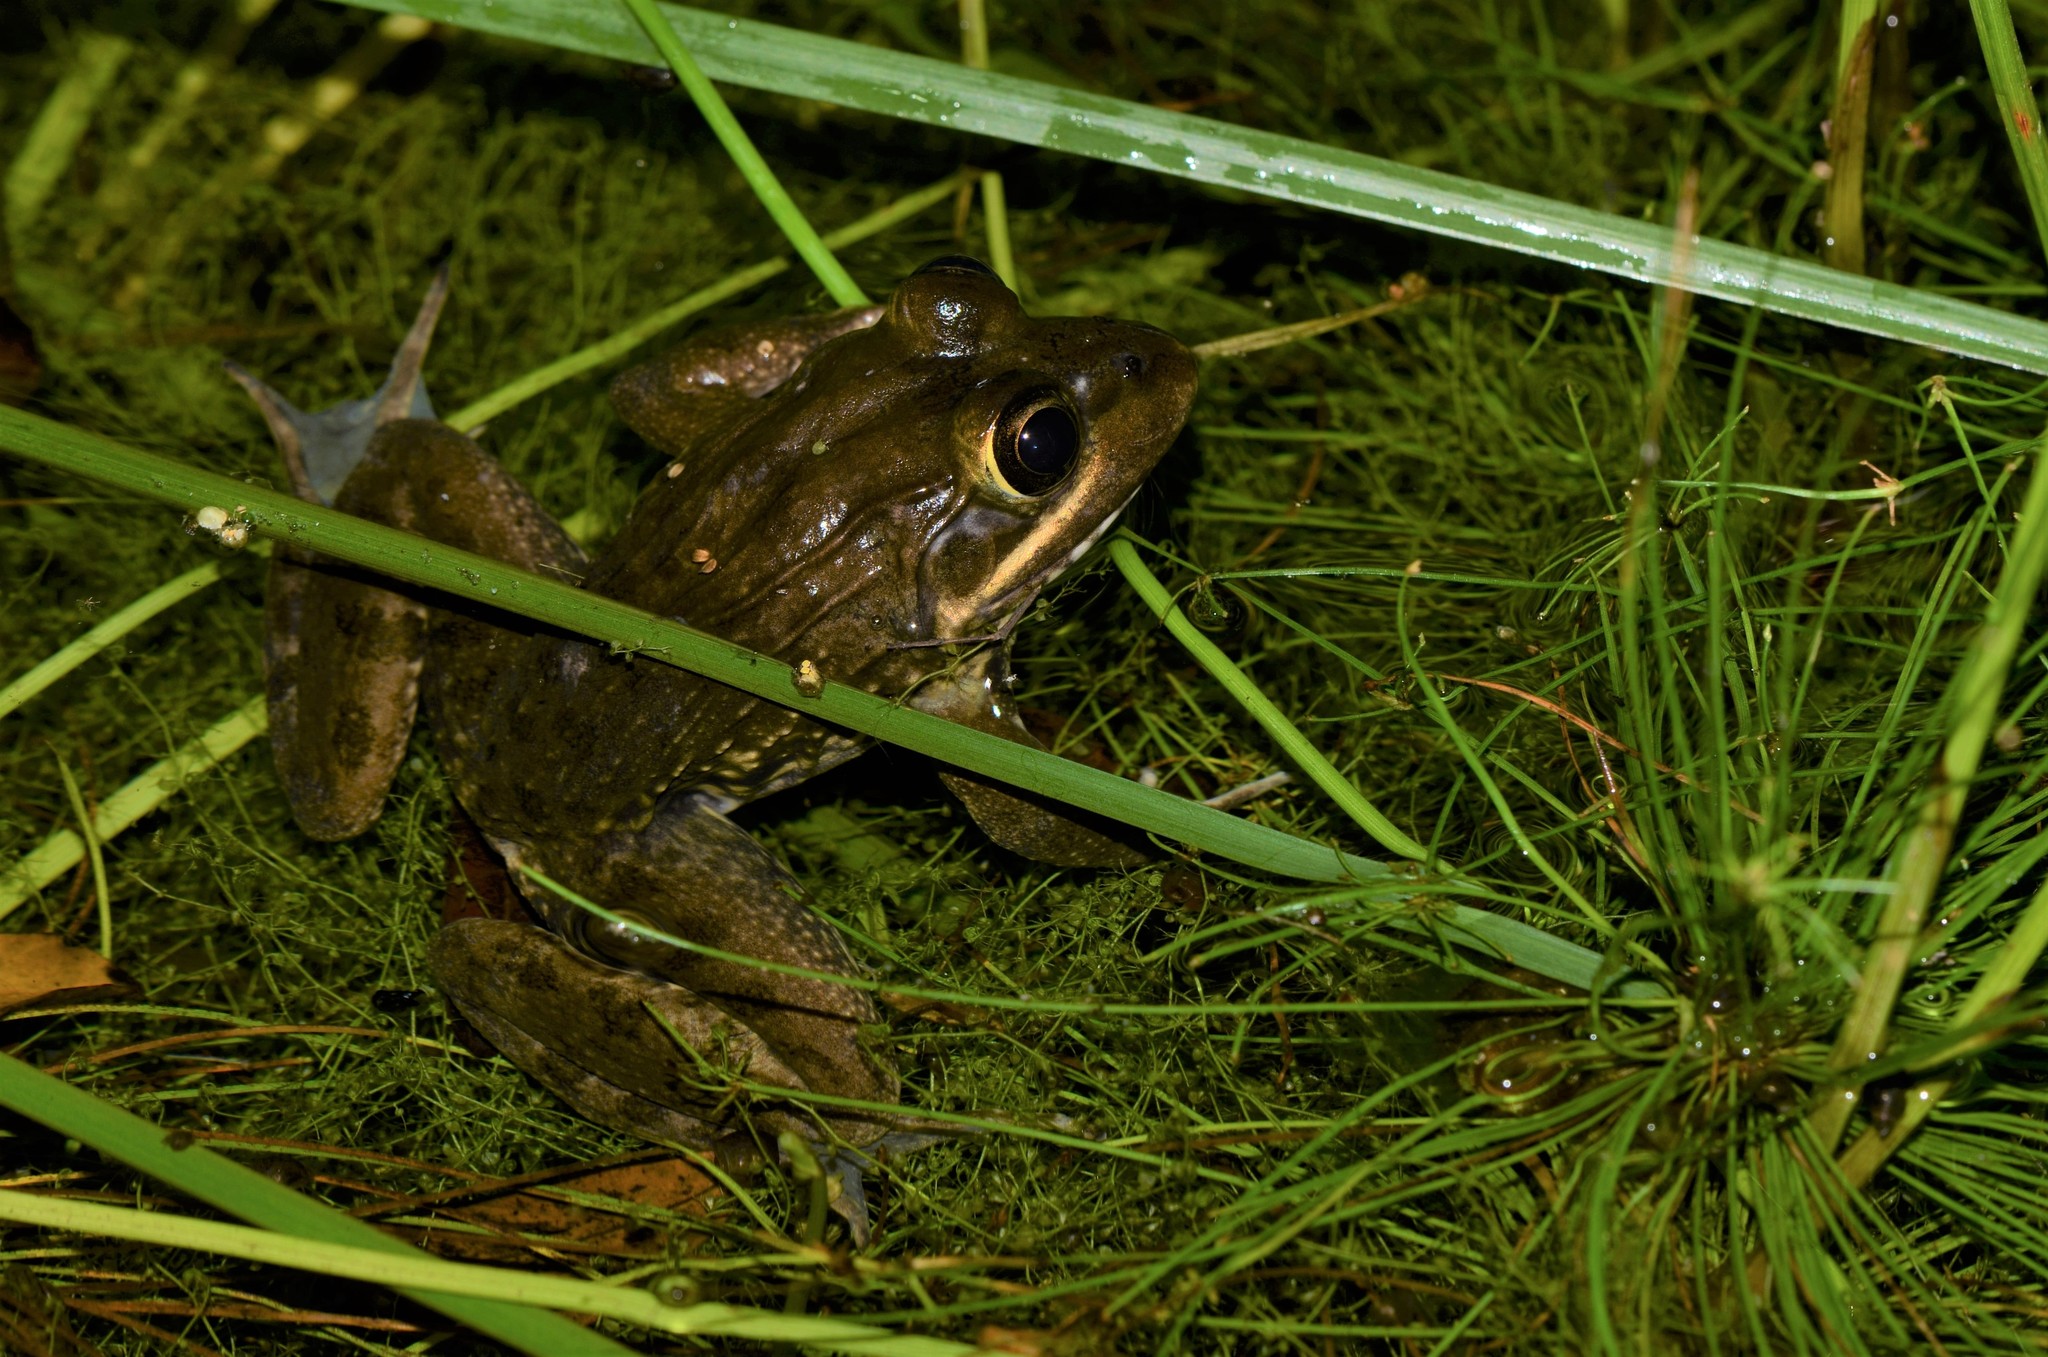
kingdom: Animalia
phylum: Chordata
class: Amphibia
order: Anura
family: Pyxicephalidae
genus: Amietia
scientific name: Amietia fuscigula
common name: Cape rana
